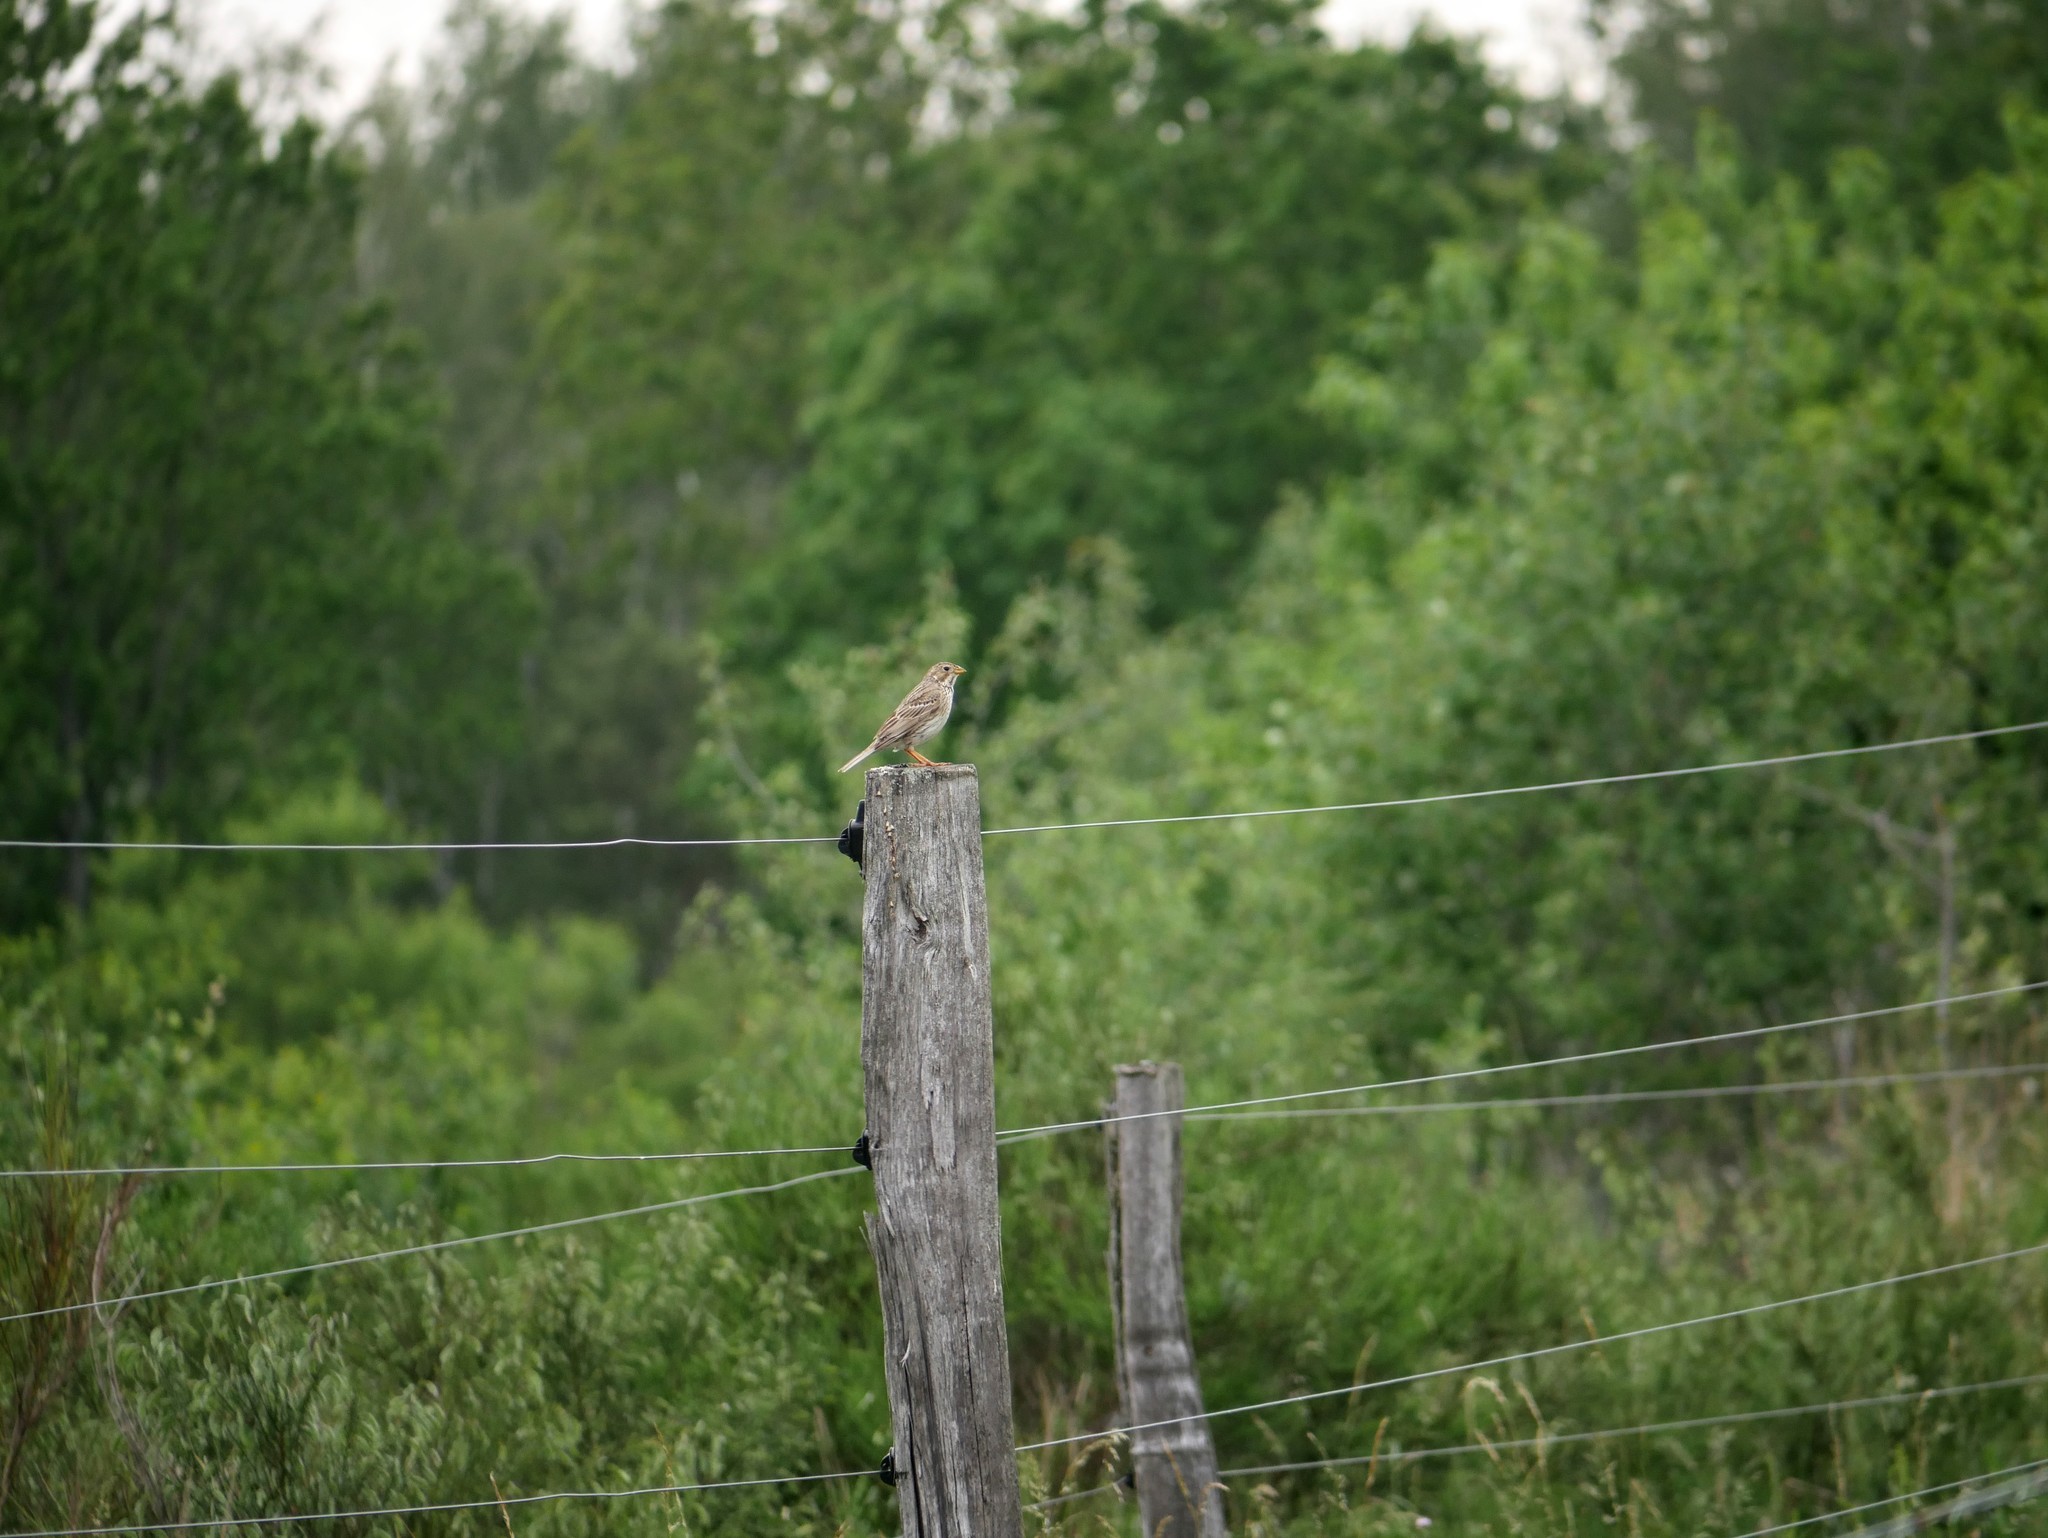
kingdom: Animalia
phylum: Chordata
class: Aves
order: Passeriformes
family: Emberizidae
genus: Emberiza
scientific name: Emberiza calandra
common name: Corn bunting
